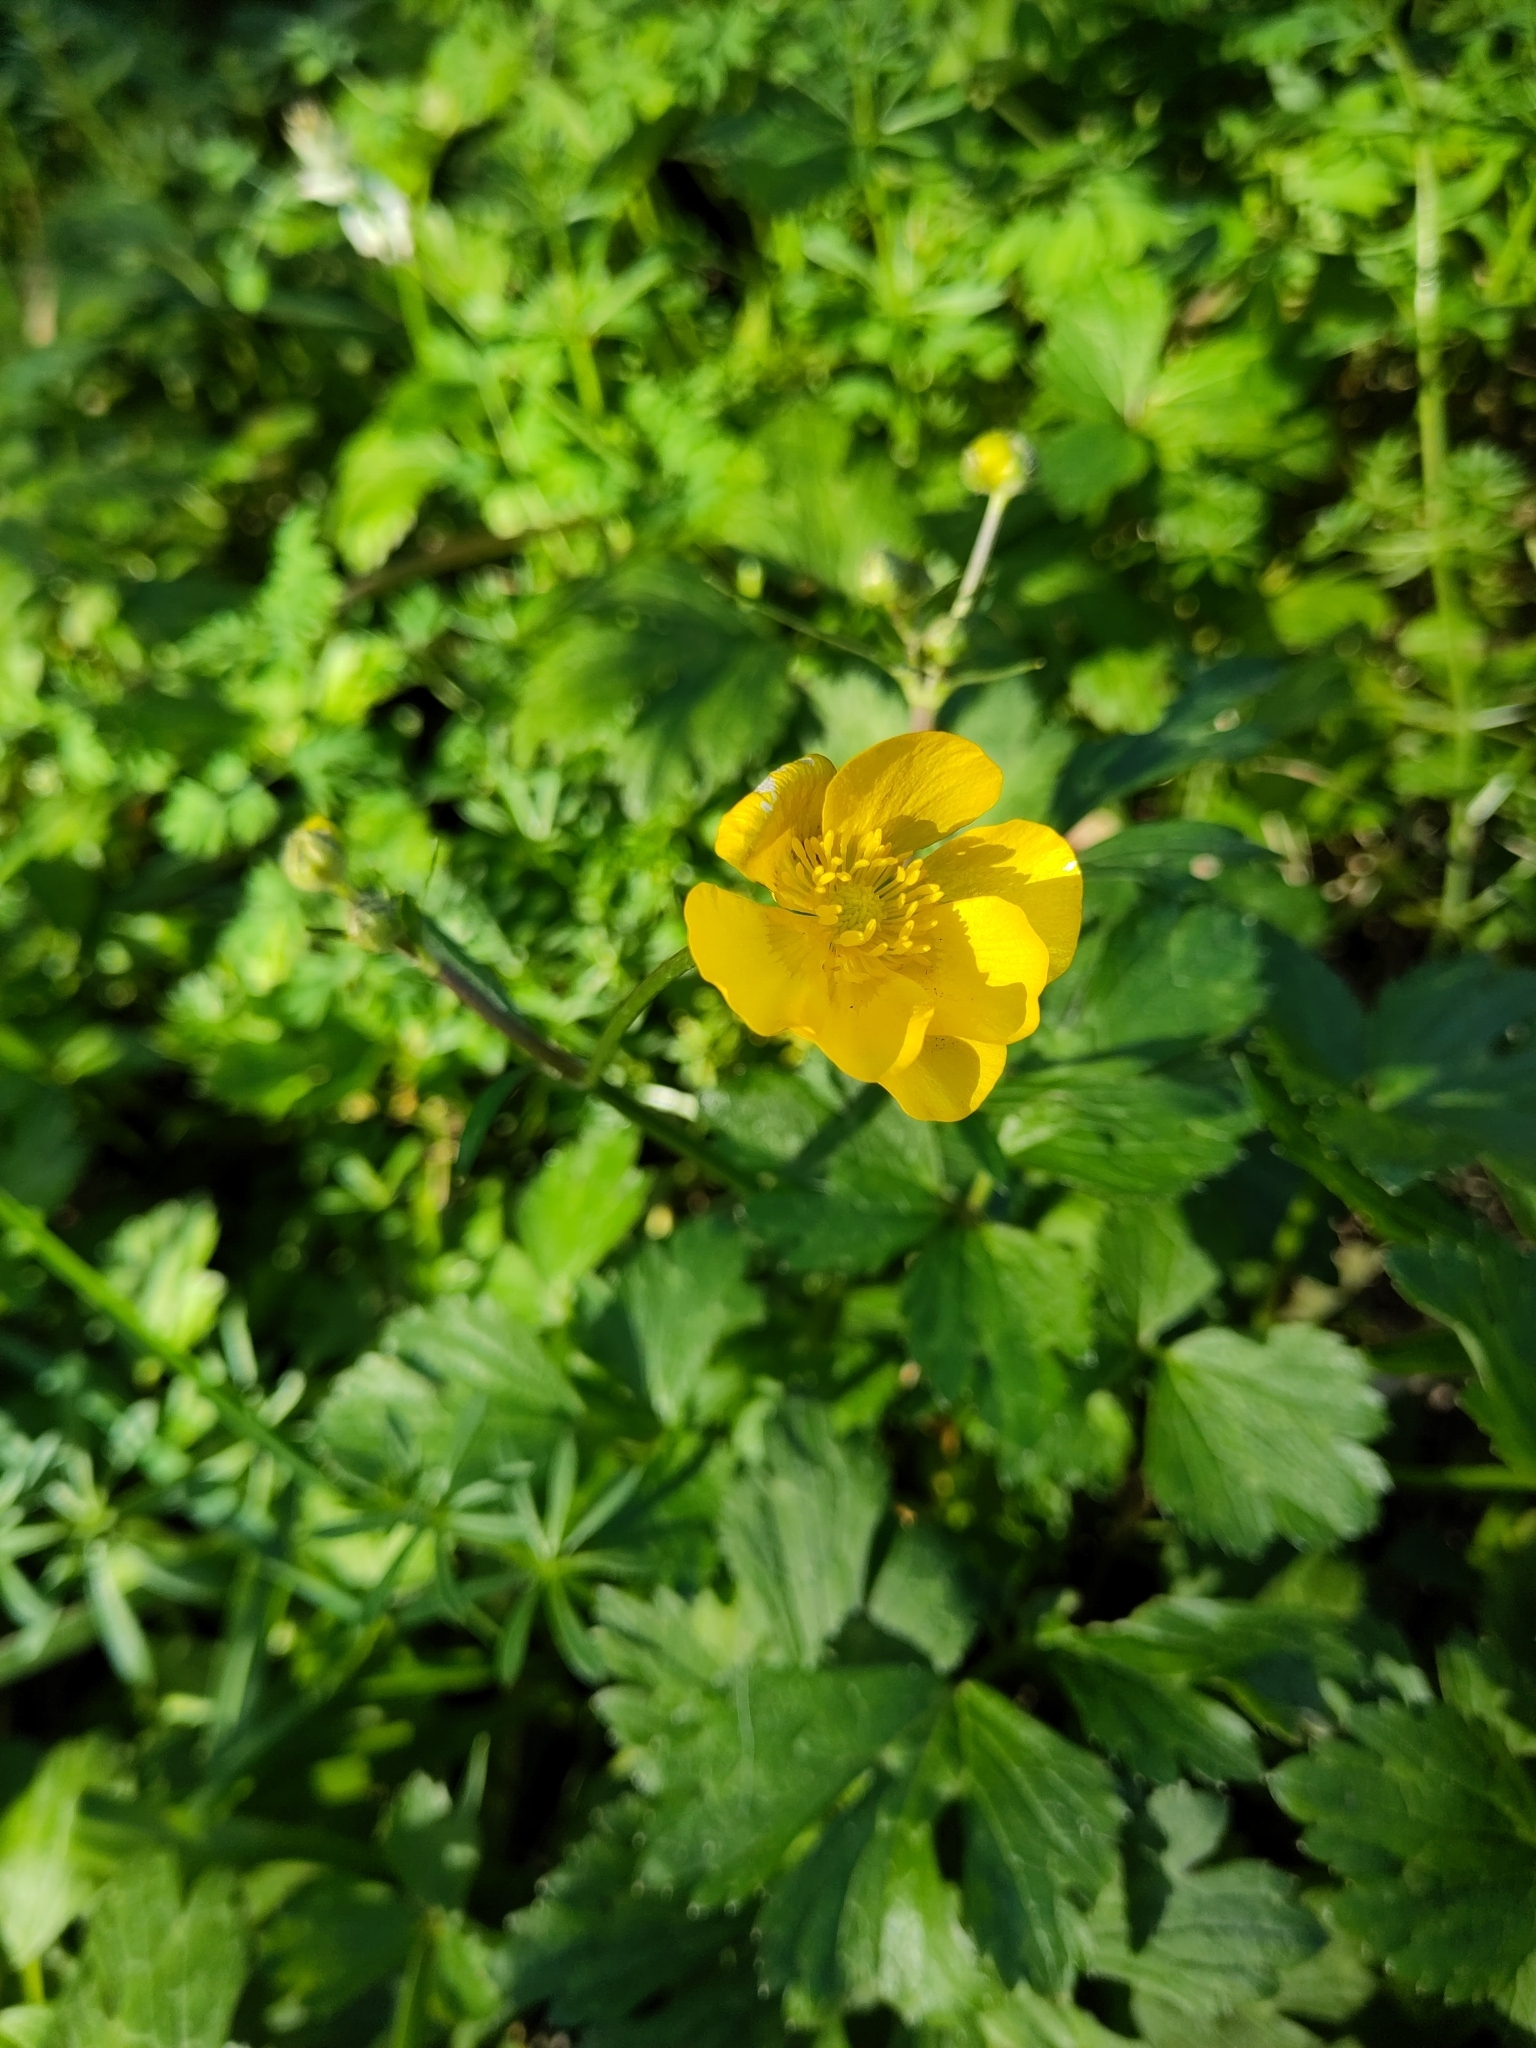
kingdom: Plantae
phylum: Tracheophyta
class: Magnoliopsida
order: Ranunculales
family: Ranunculaceae
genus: Ranunculus
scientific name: Ranunculus repens
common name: Creeping buttercup
